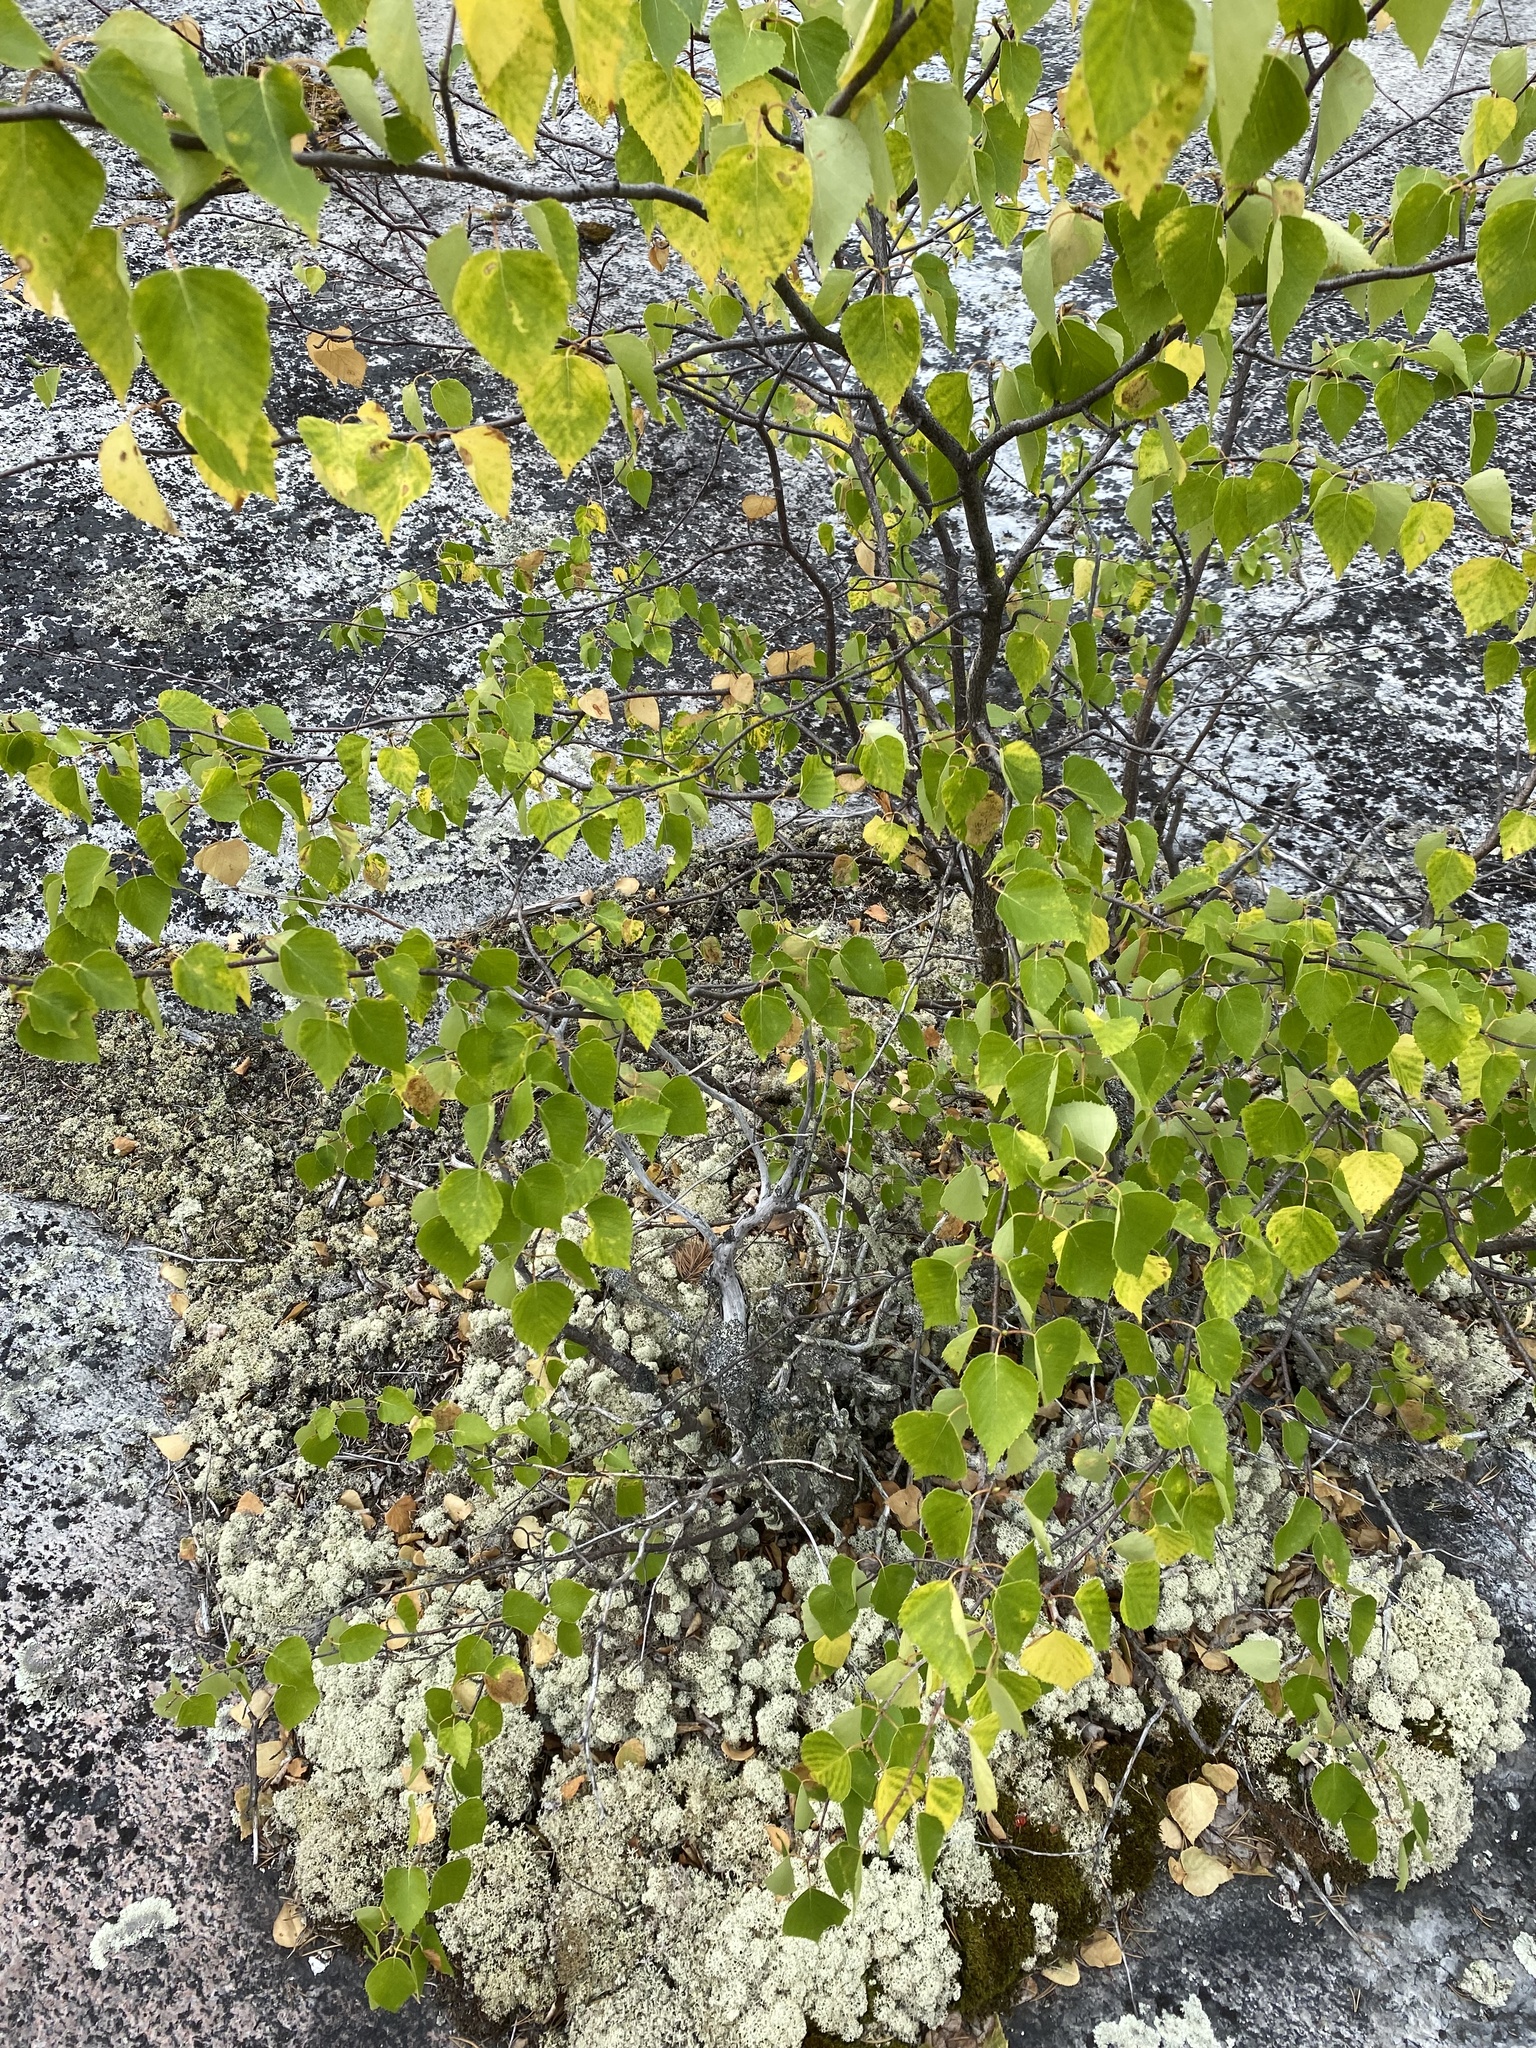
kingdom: Plantae
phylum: Tracheophyta
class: Magnoliopsida
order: Fagales
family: Betulaceae
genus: Betula
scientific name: Betula pendula
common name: Silver birch
